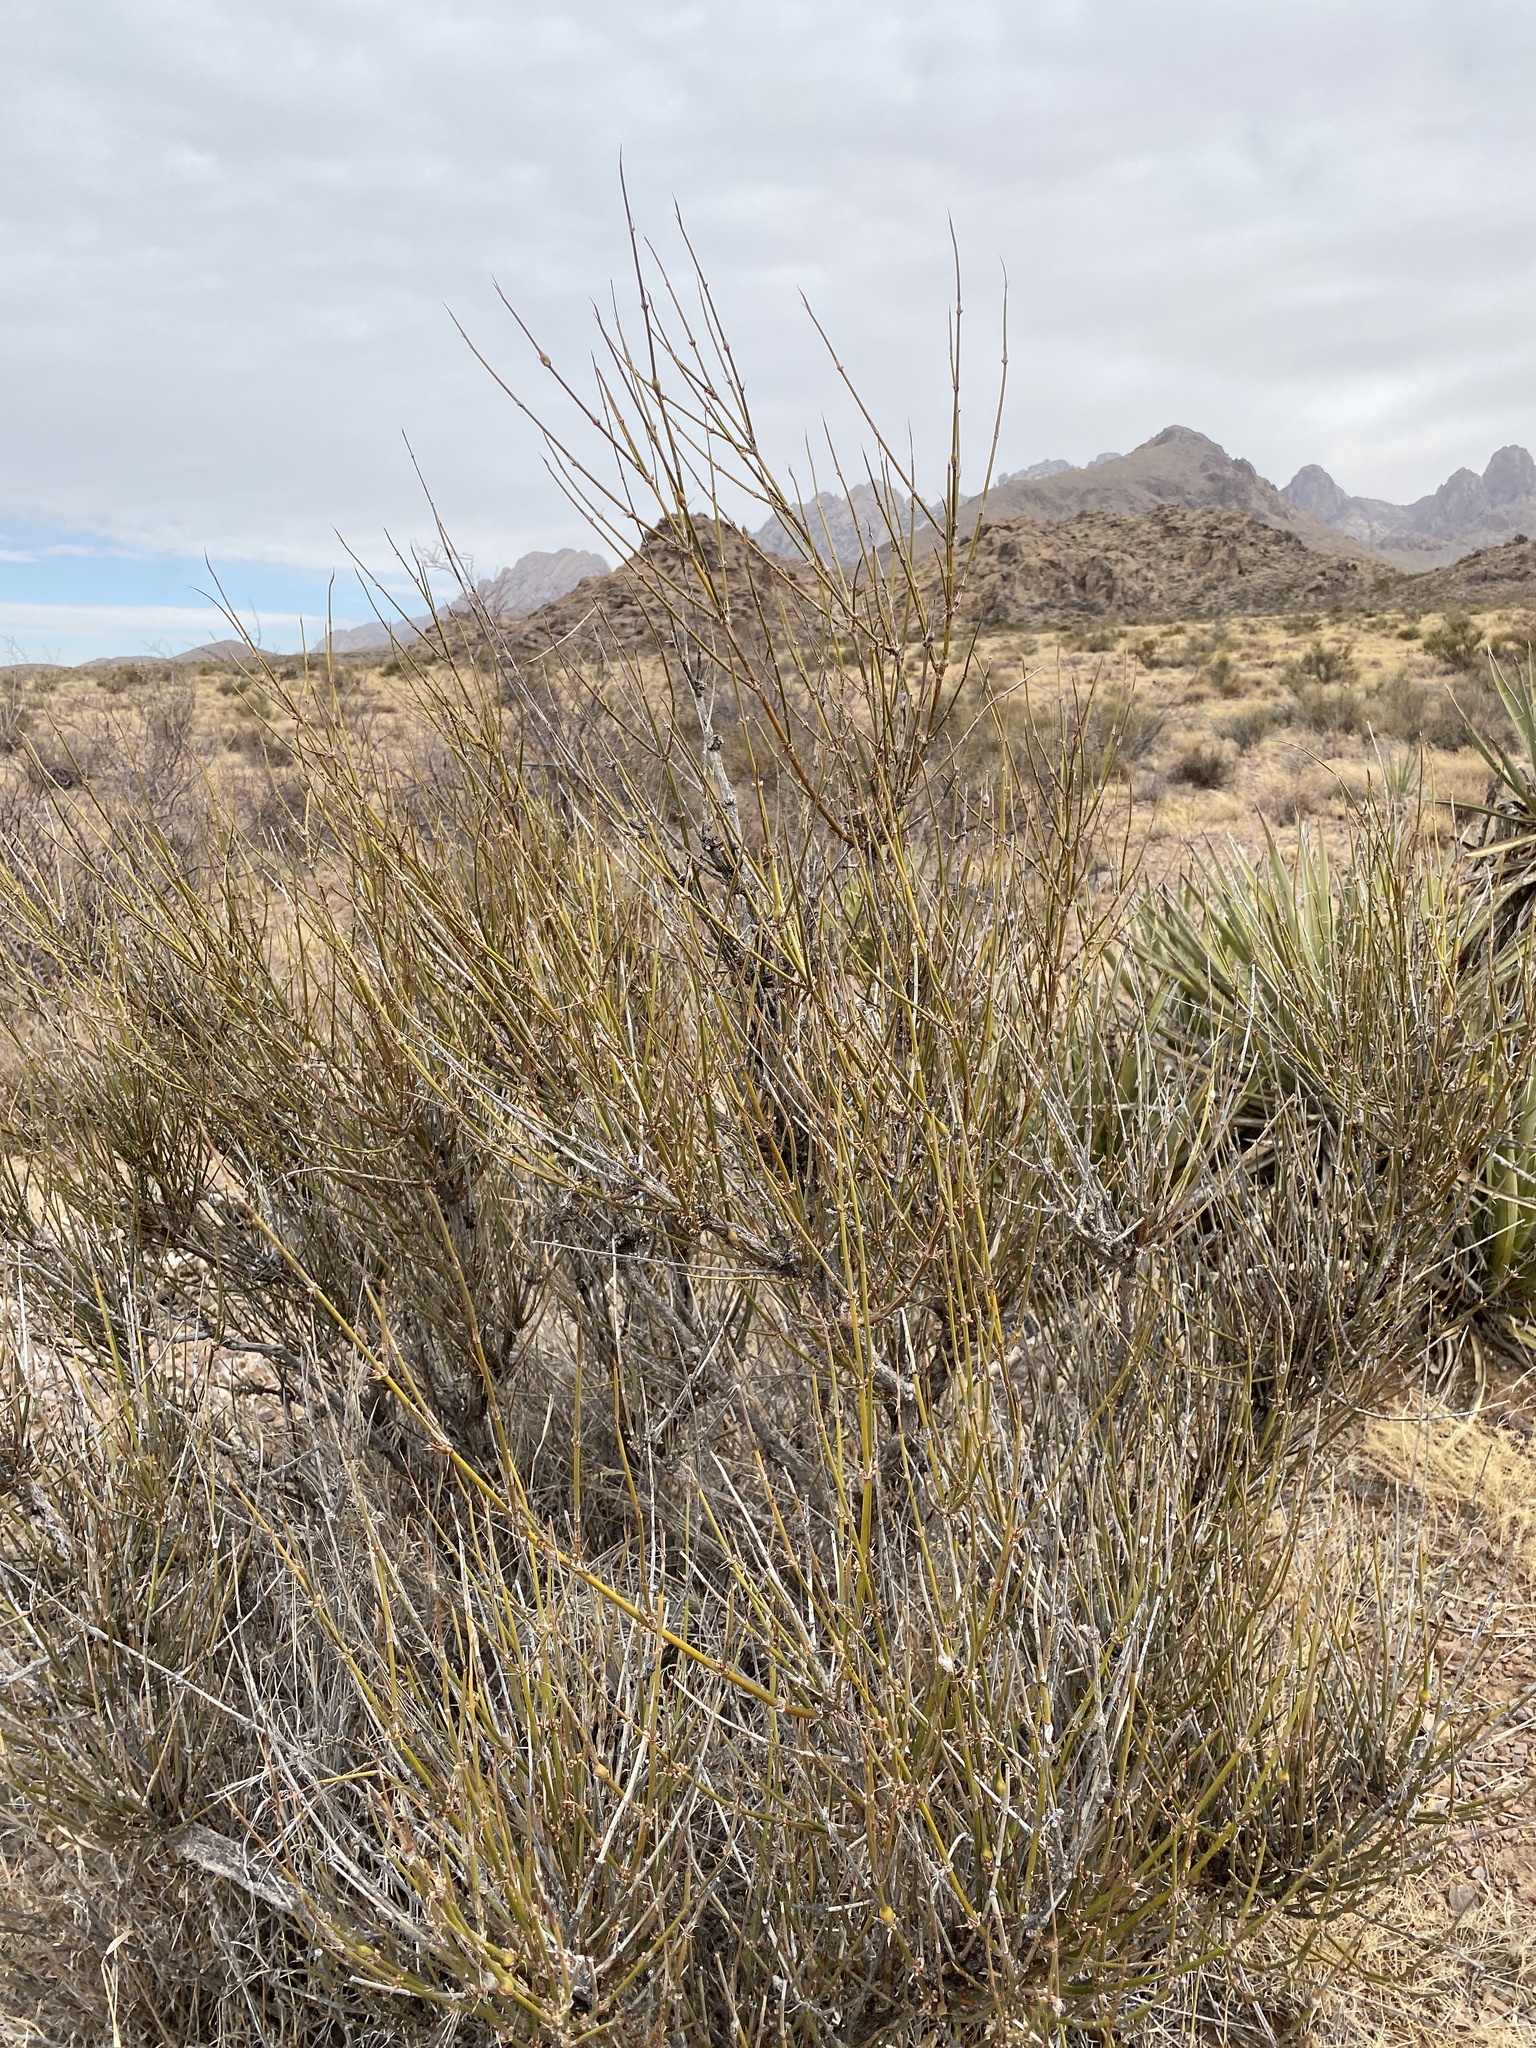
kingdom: Plantae
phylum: Tracheophyta
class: Gnetopsida
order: Ephedrales
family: Ephedraceae
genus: Ephedra
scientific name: Ephedra trifurca
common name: Mexican-tea
